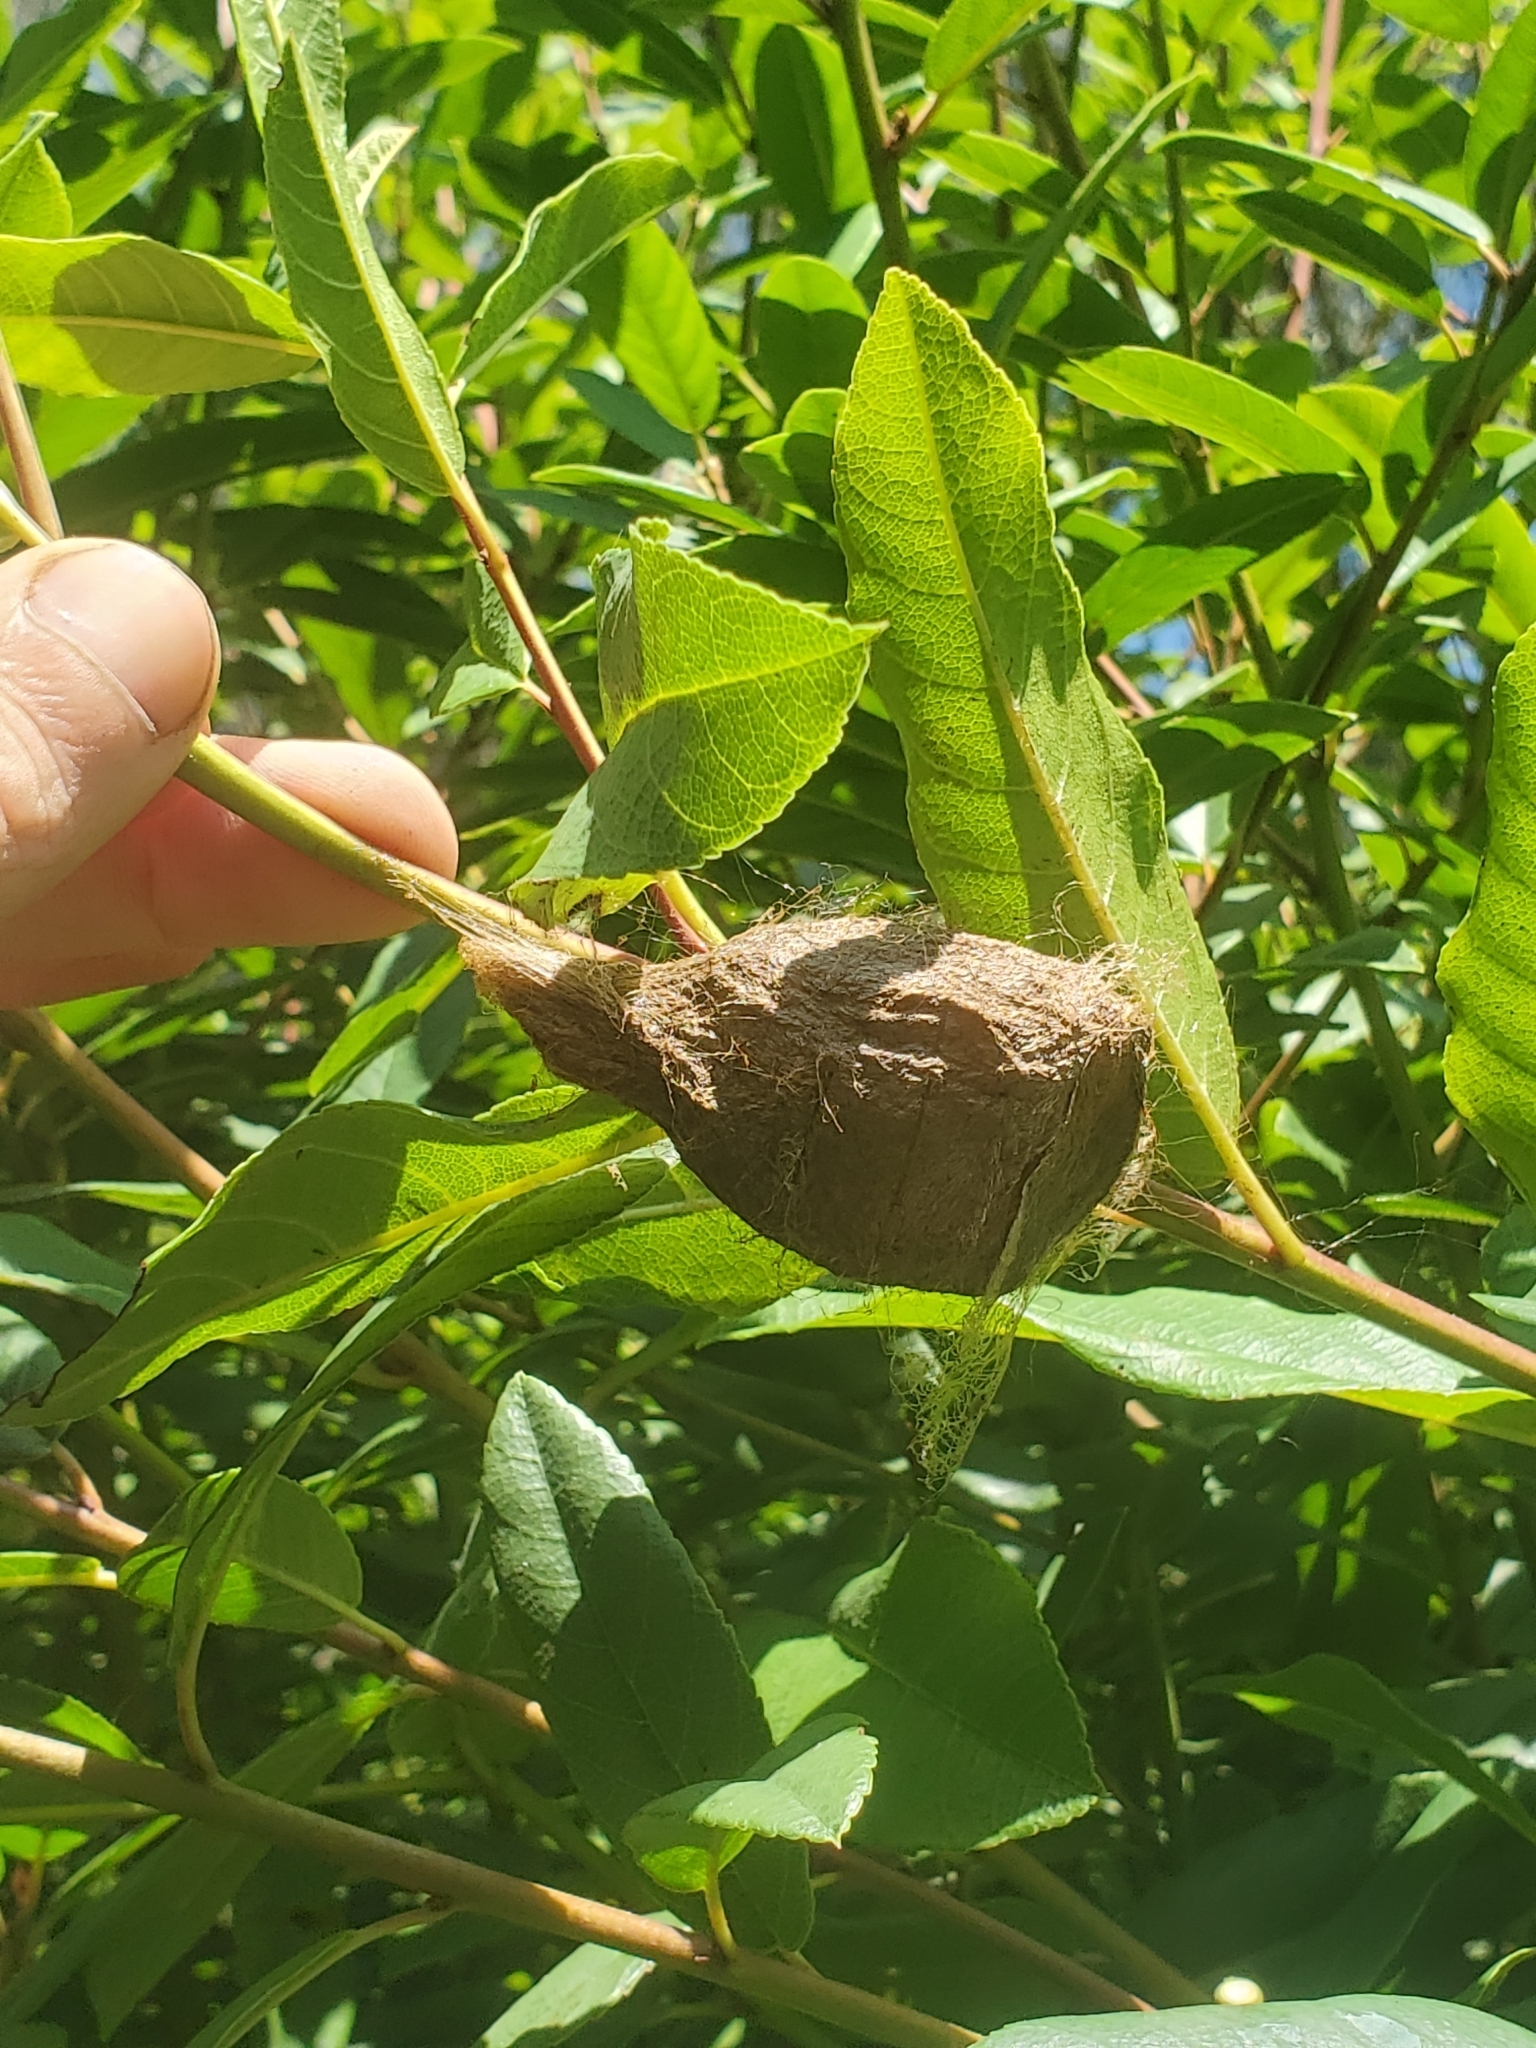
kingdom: Animalia
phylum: Arthropoda
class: Insecta
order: Lepidoptera
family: Saturniidae
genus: Hyalophora
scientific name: Hyalophora euryalus
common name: Ceanothus silkmoth
